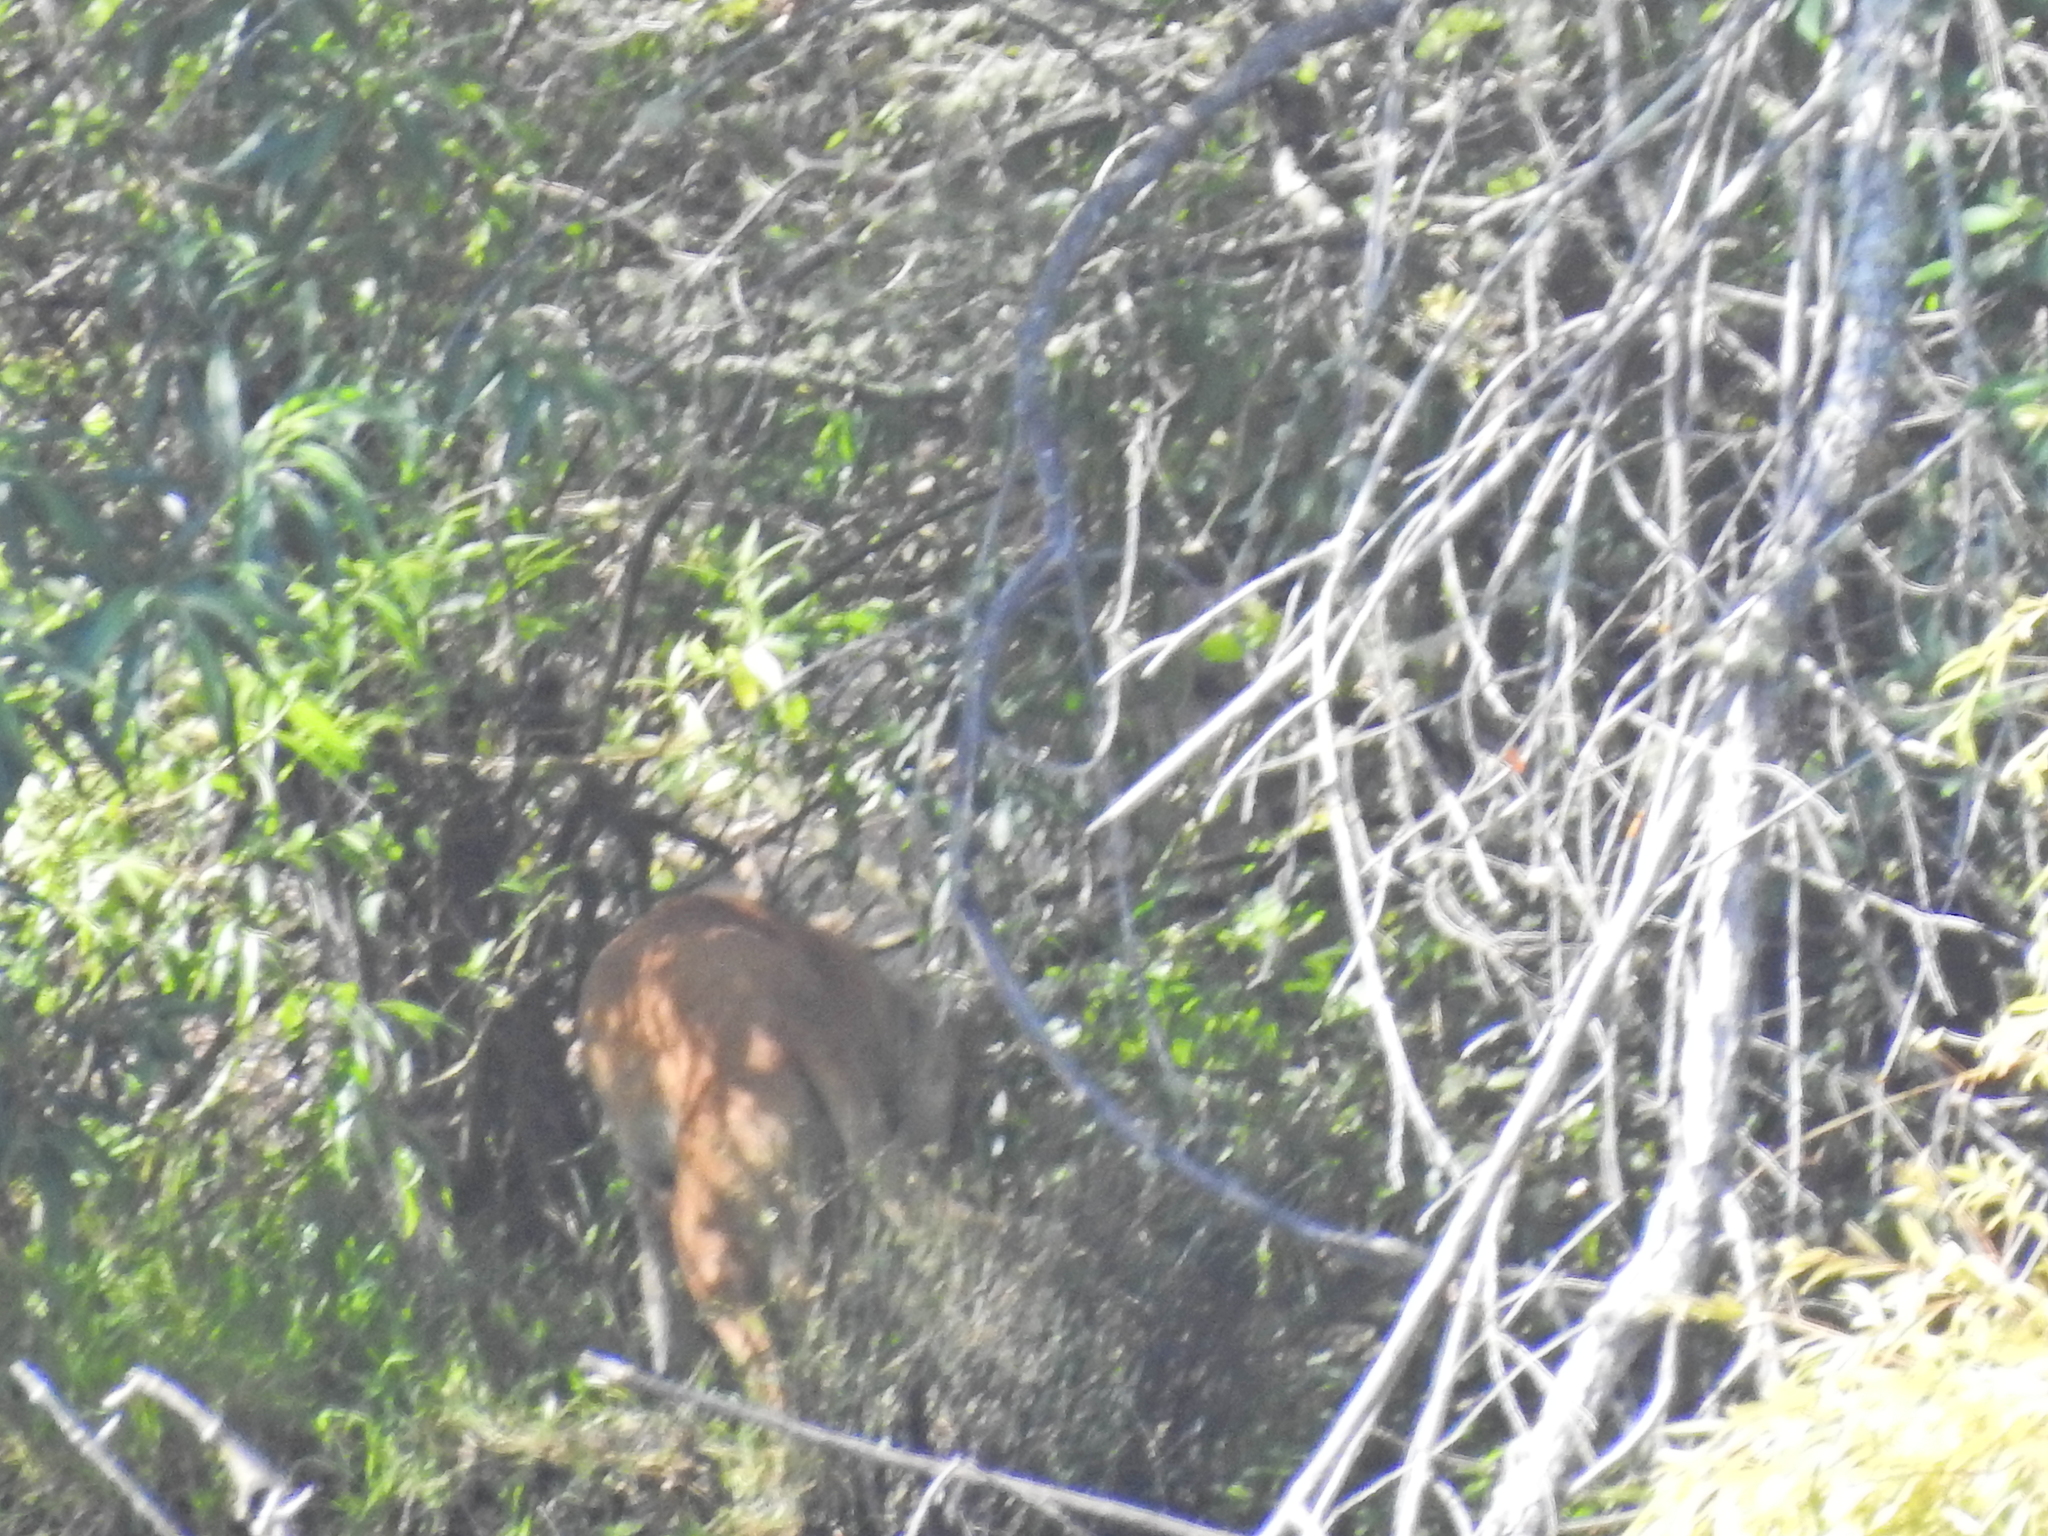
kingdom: Animalia
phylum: Chordata
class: Mammalia
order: Artiodactyla
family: Cervidae
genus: Odocoileus
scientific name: Odocoileus hemionus
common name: Mule deer
